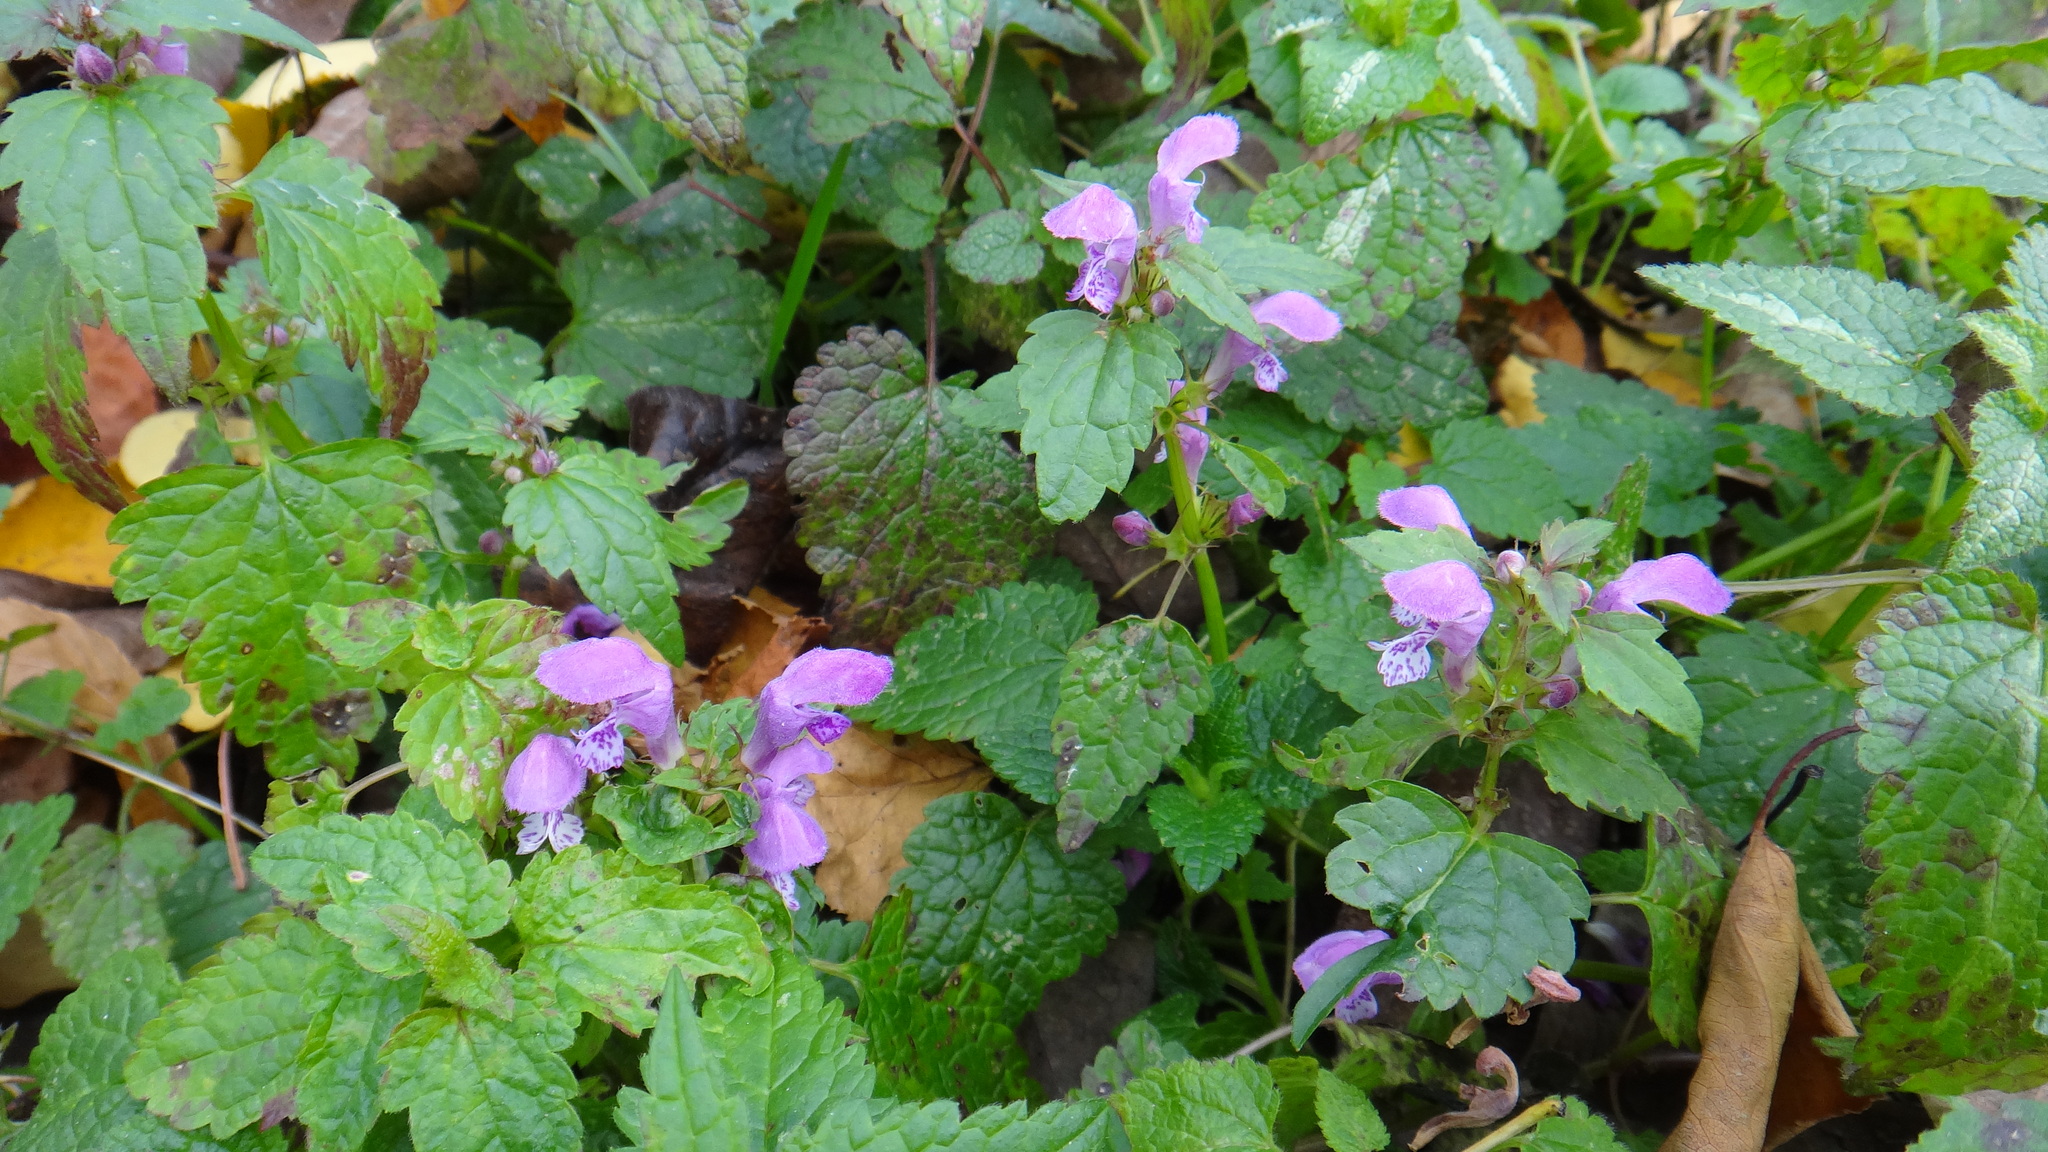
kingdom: Plantae
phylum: Tracheophyta
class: Magnoliopsida
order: Lamiales
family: Lamiaceae
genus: Lamium
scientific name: Lamium maculatum
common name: Spotted dead-nettle
